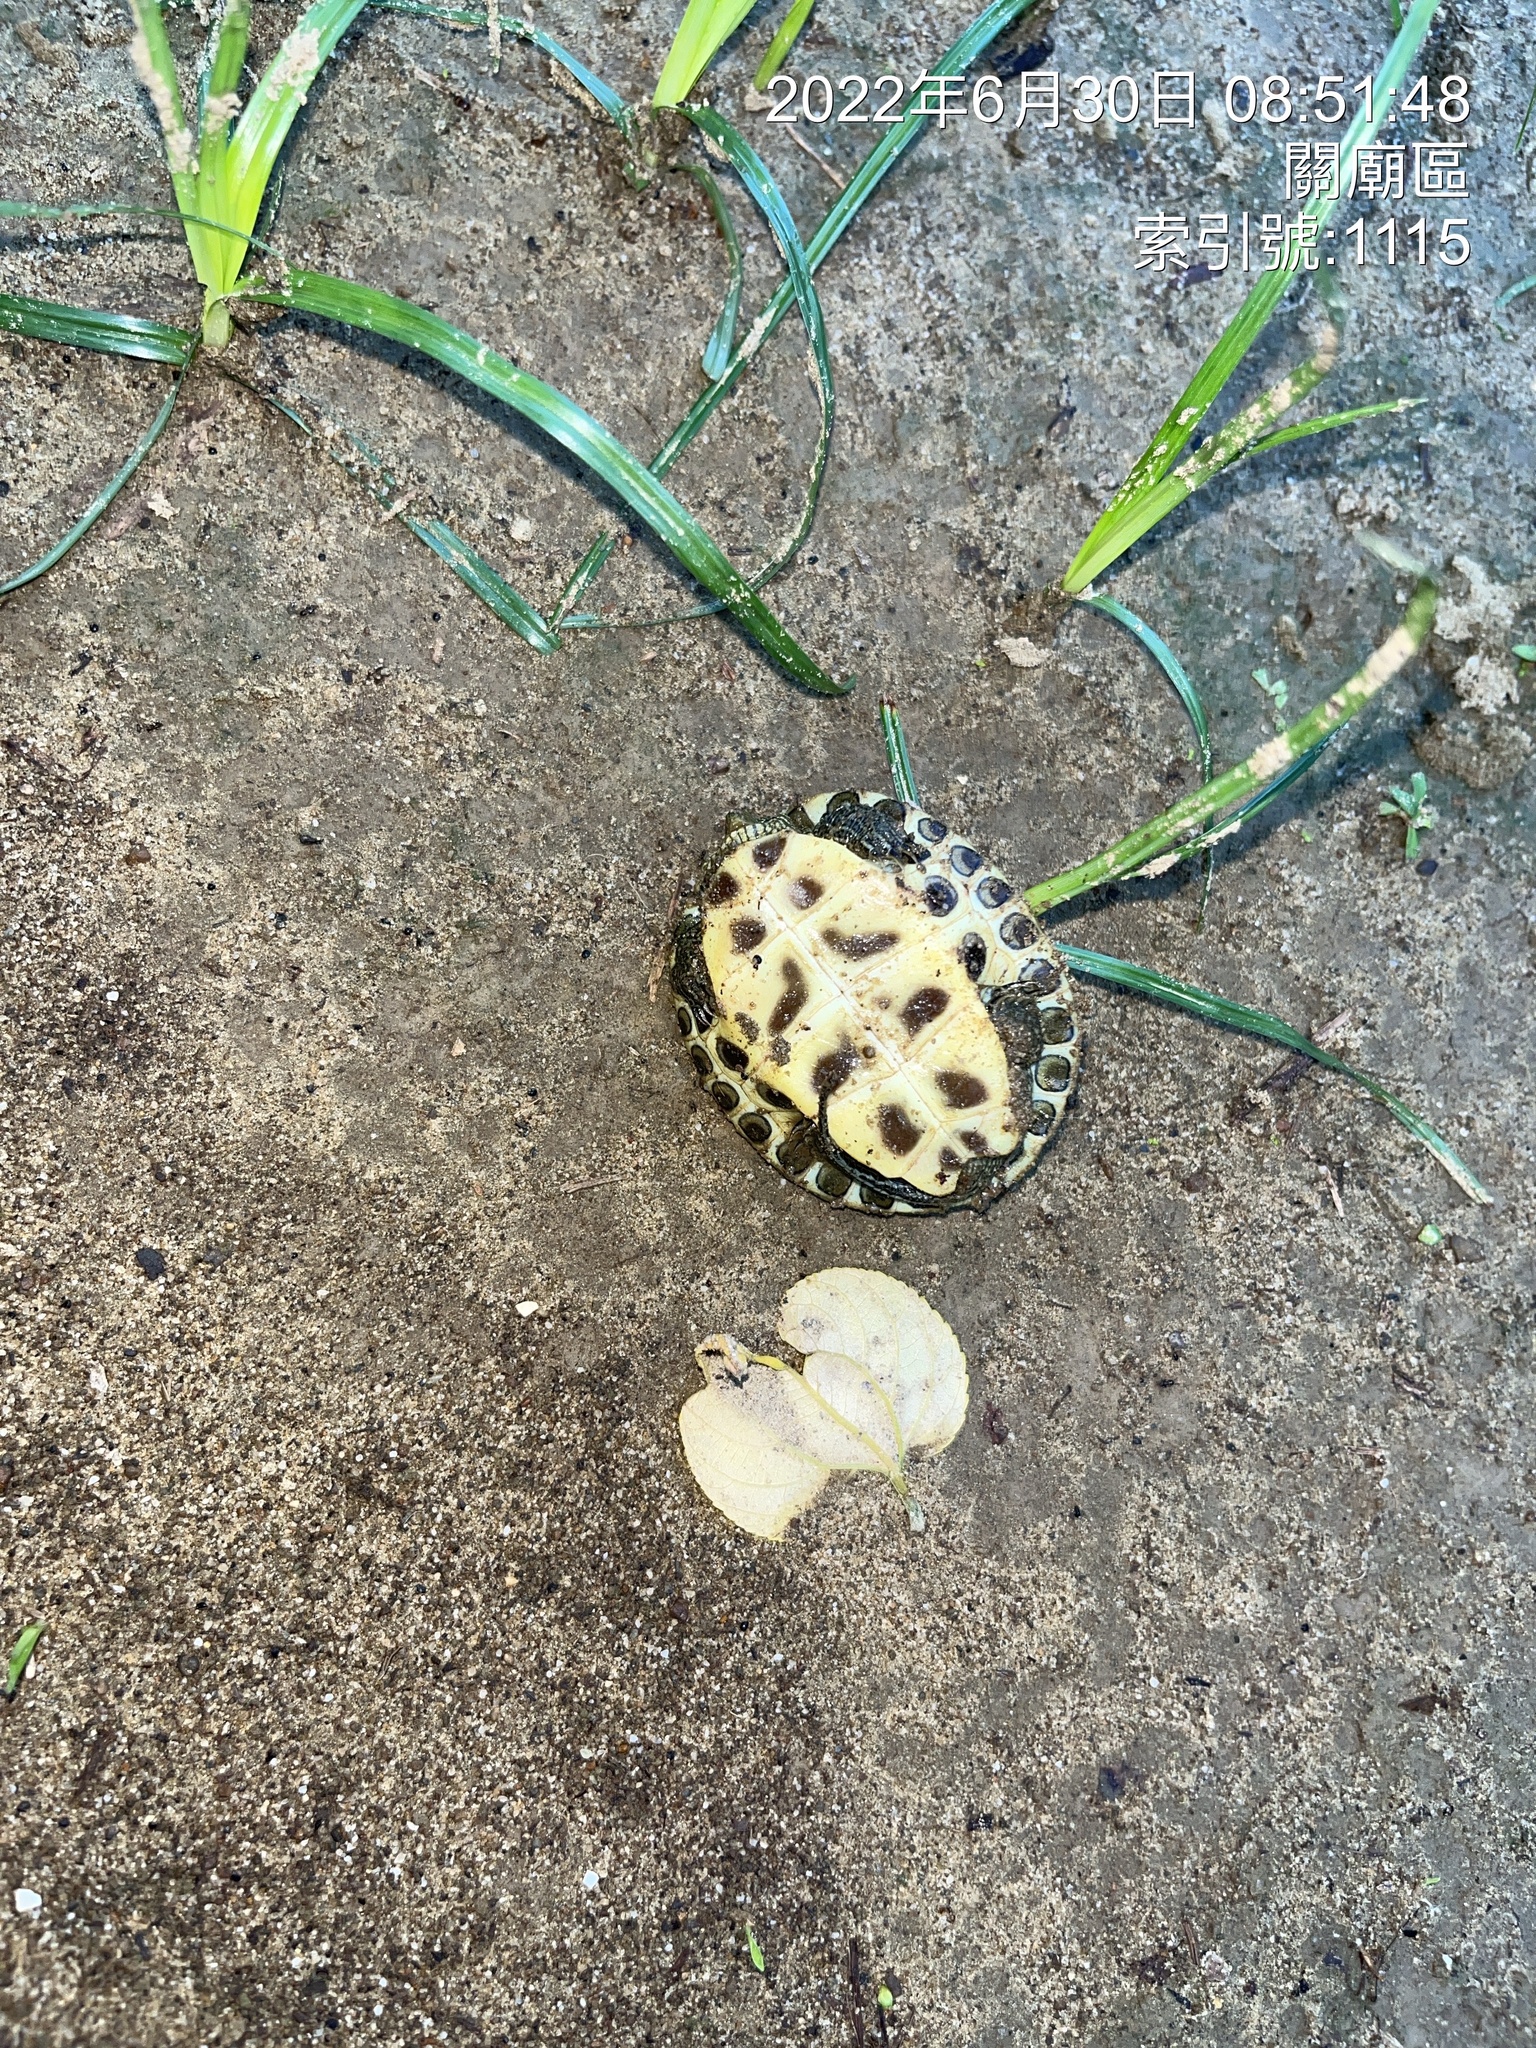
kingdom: Animalia
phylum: Chordata
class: Testudines
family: Geoemydidae
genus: Mauremys
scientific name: Mauremys sinensis
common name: Chinese stripe-necked turtle
